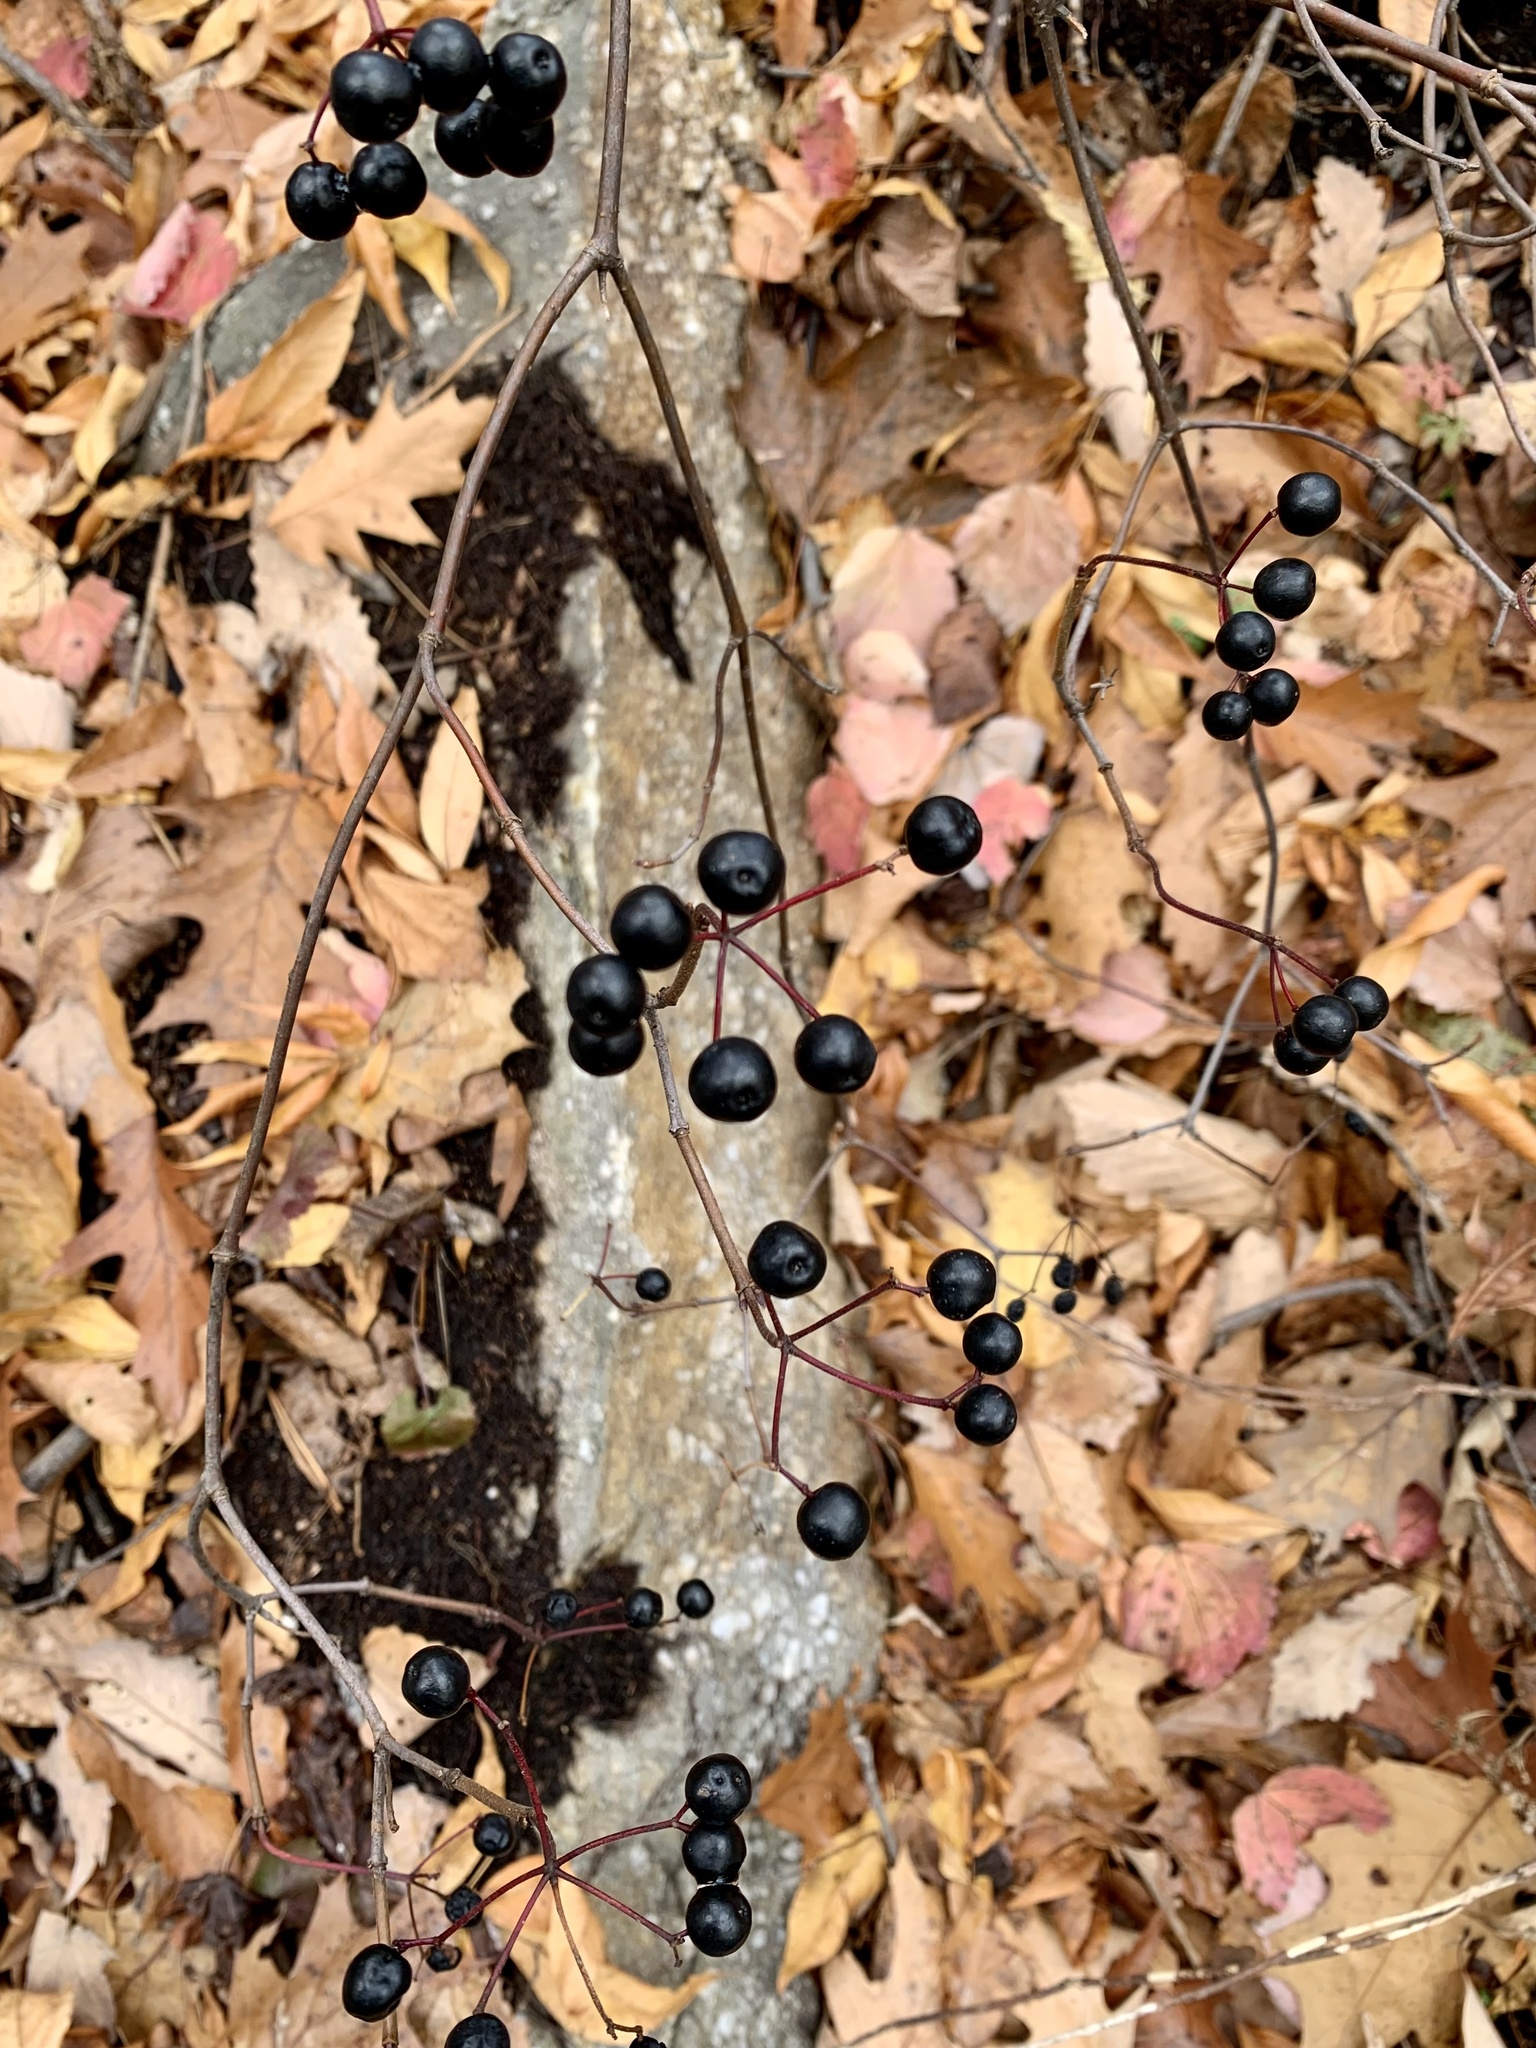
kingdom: Plantae
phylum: Tracheophyta
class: Magnoliopsida
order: Dipsacales
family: Viburnaceae
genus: Viburnum
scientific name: Viburnum acerifolium
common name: Dockmackie
